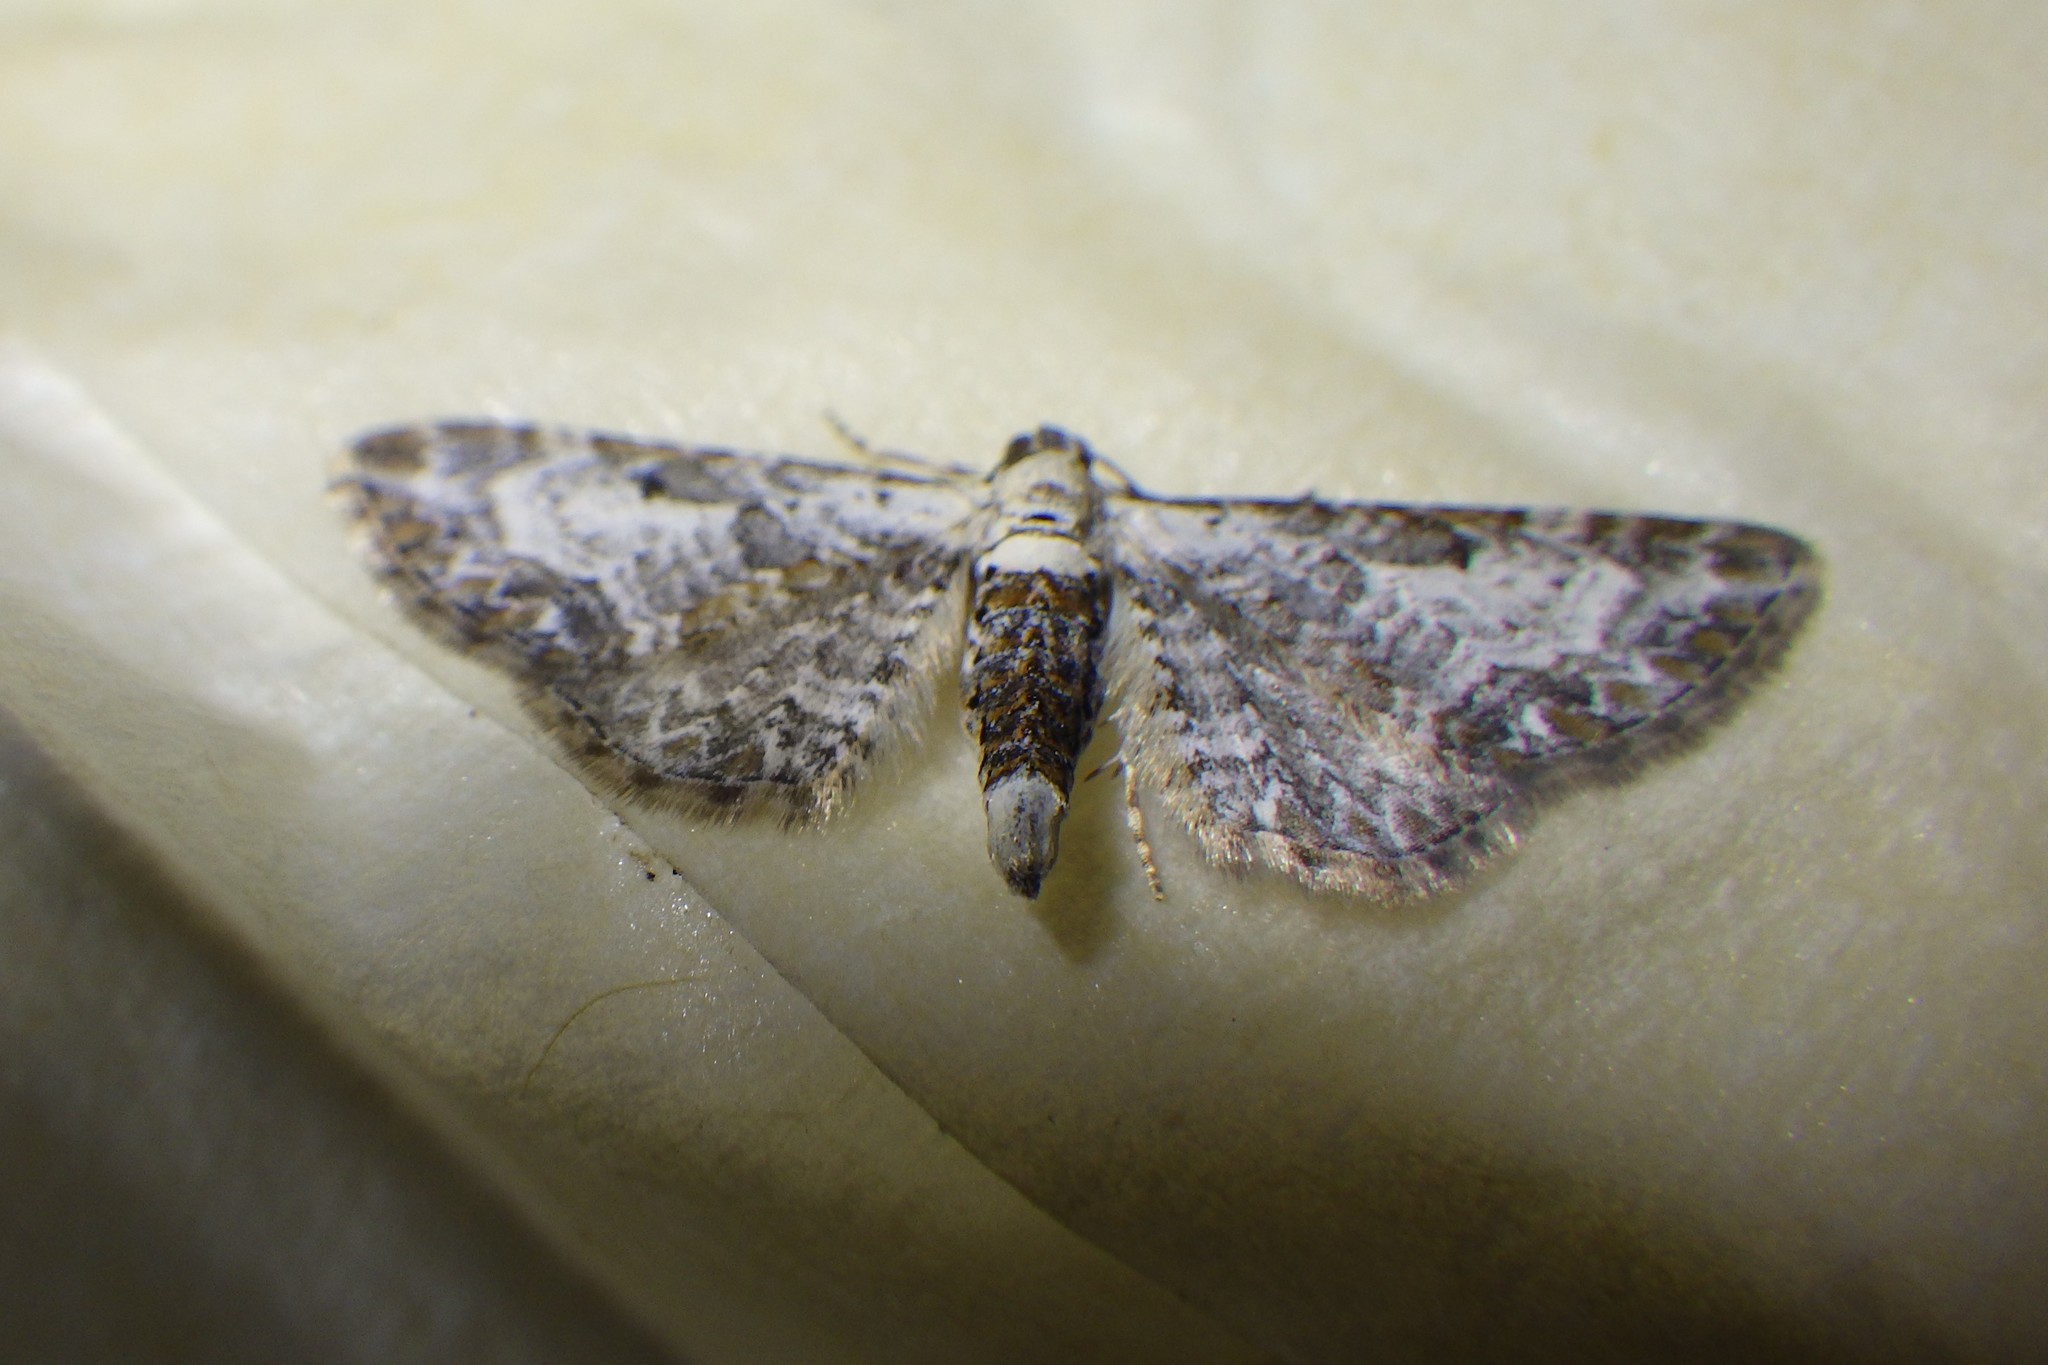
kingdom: Animalia
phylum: Arthropoda
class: Insecta
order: Lepidoptera
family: Geometridae
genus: Eupithecia
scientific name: Eupithecia succenturiata
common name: Bordered pug
